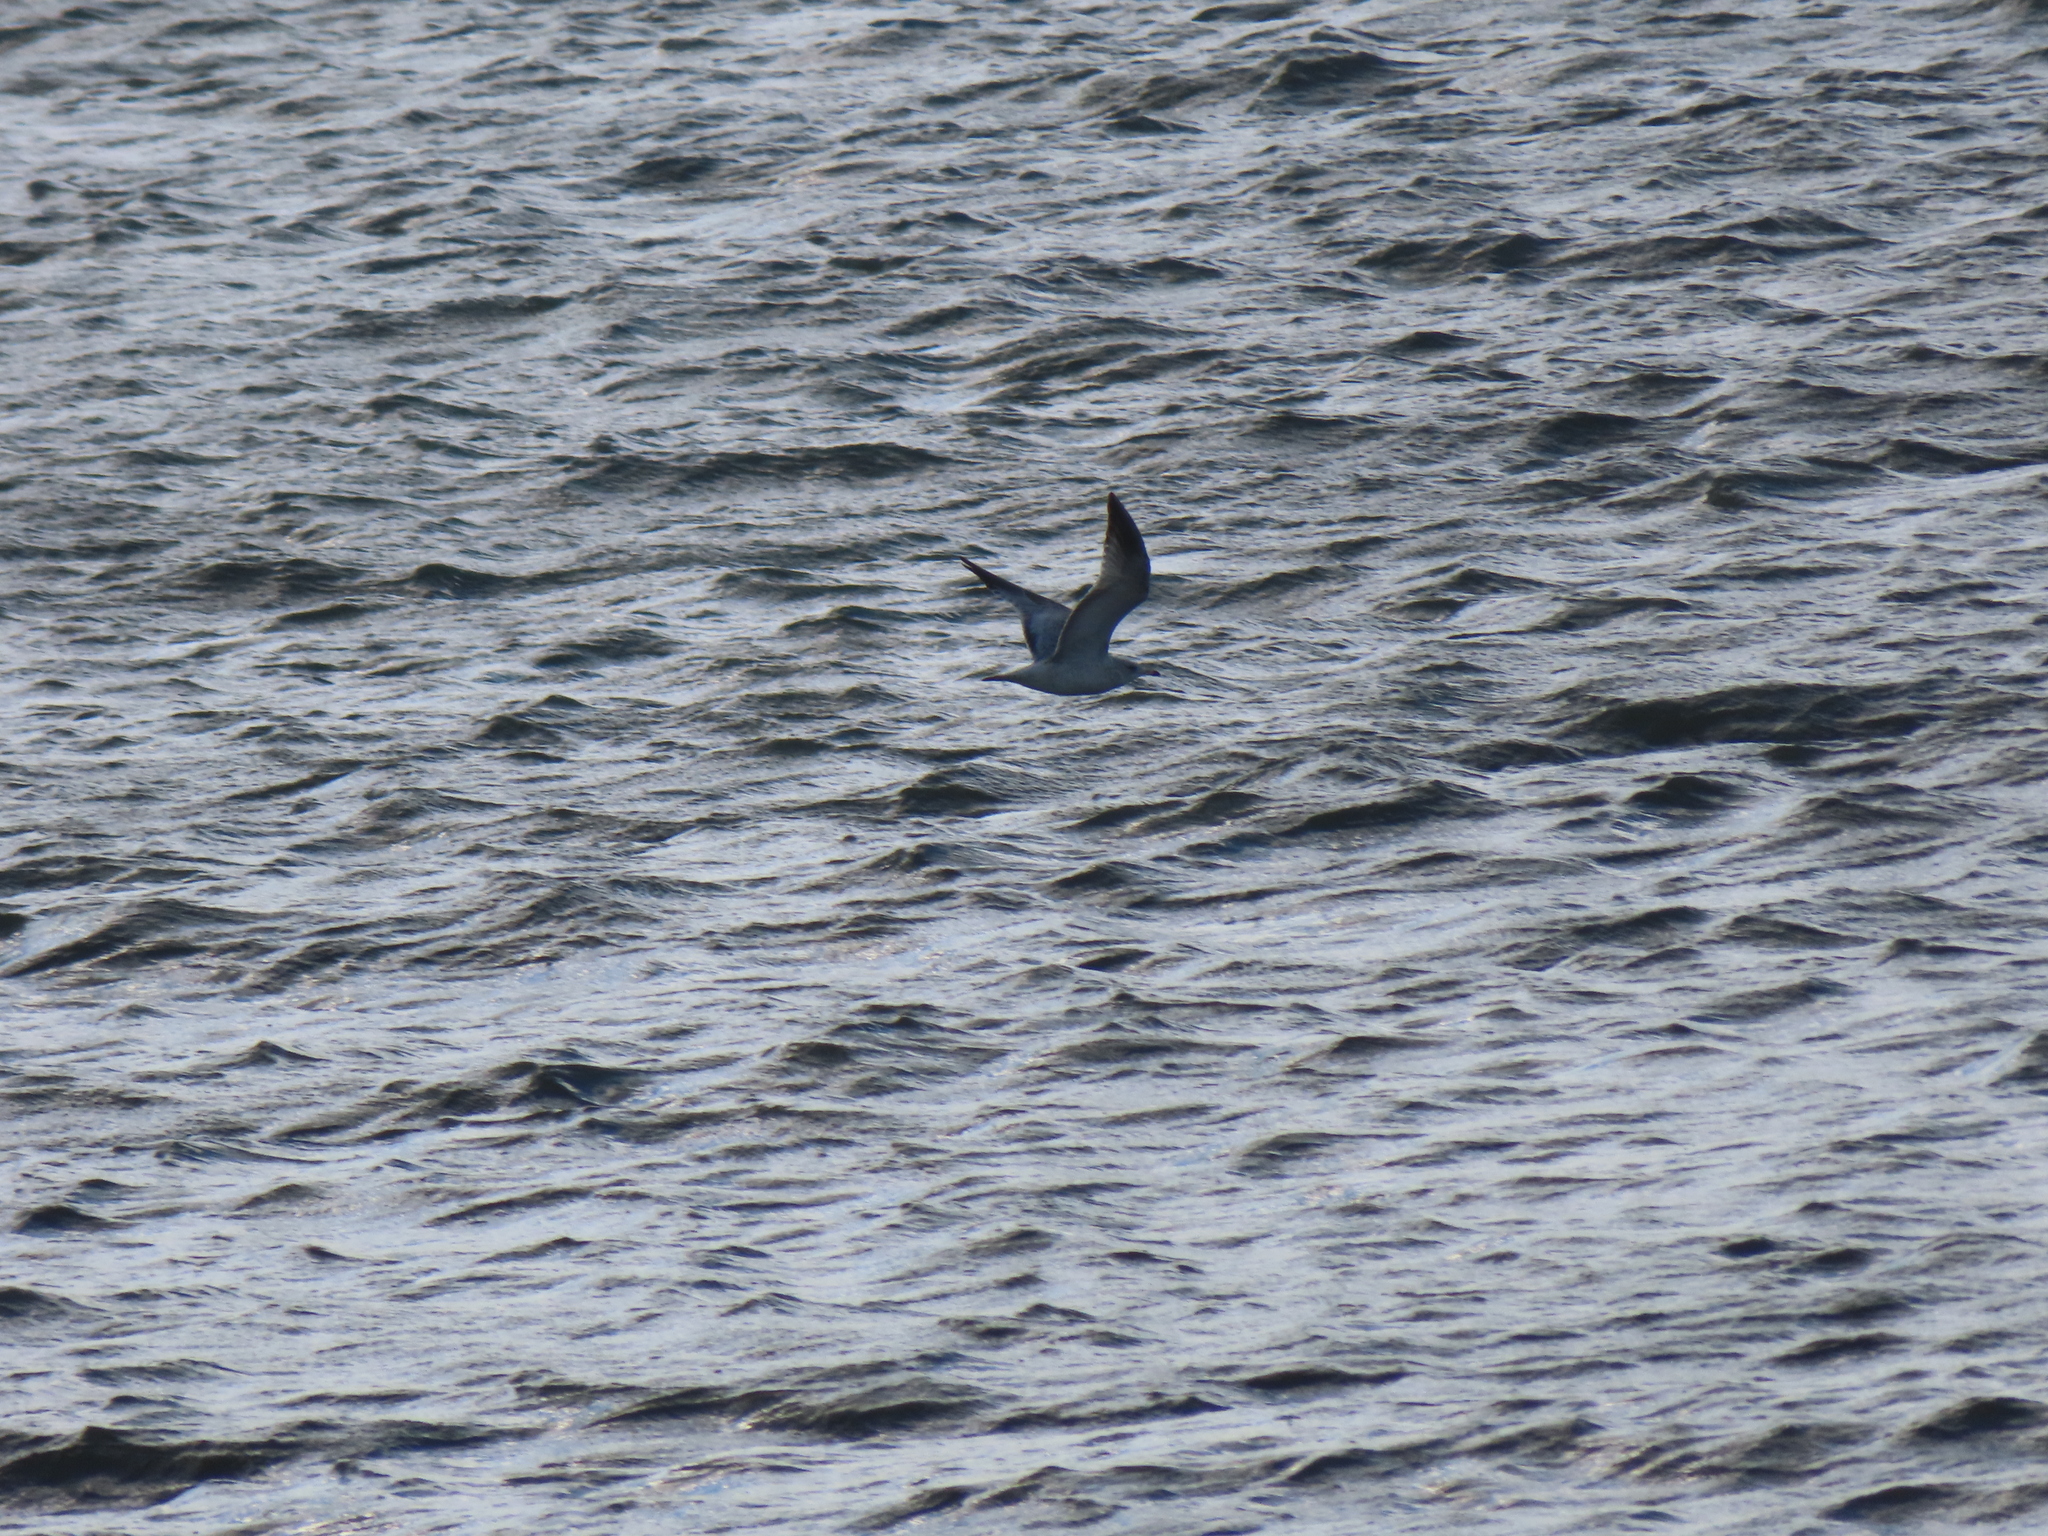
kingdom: Animalia
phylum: Chordata
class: Aves
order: Charadriiformes
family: Laridae
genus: Larus
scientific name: Larus delawarensis
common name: Ring-billed gull
